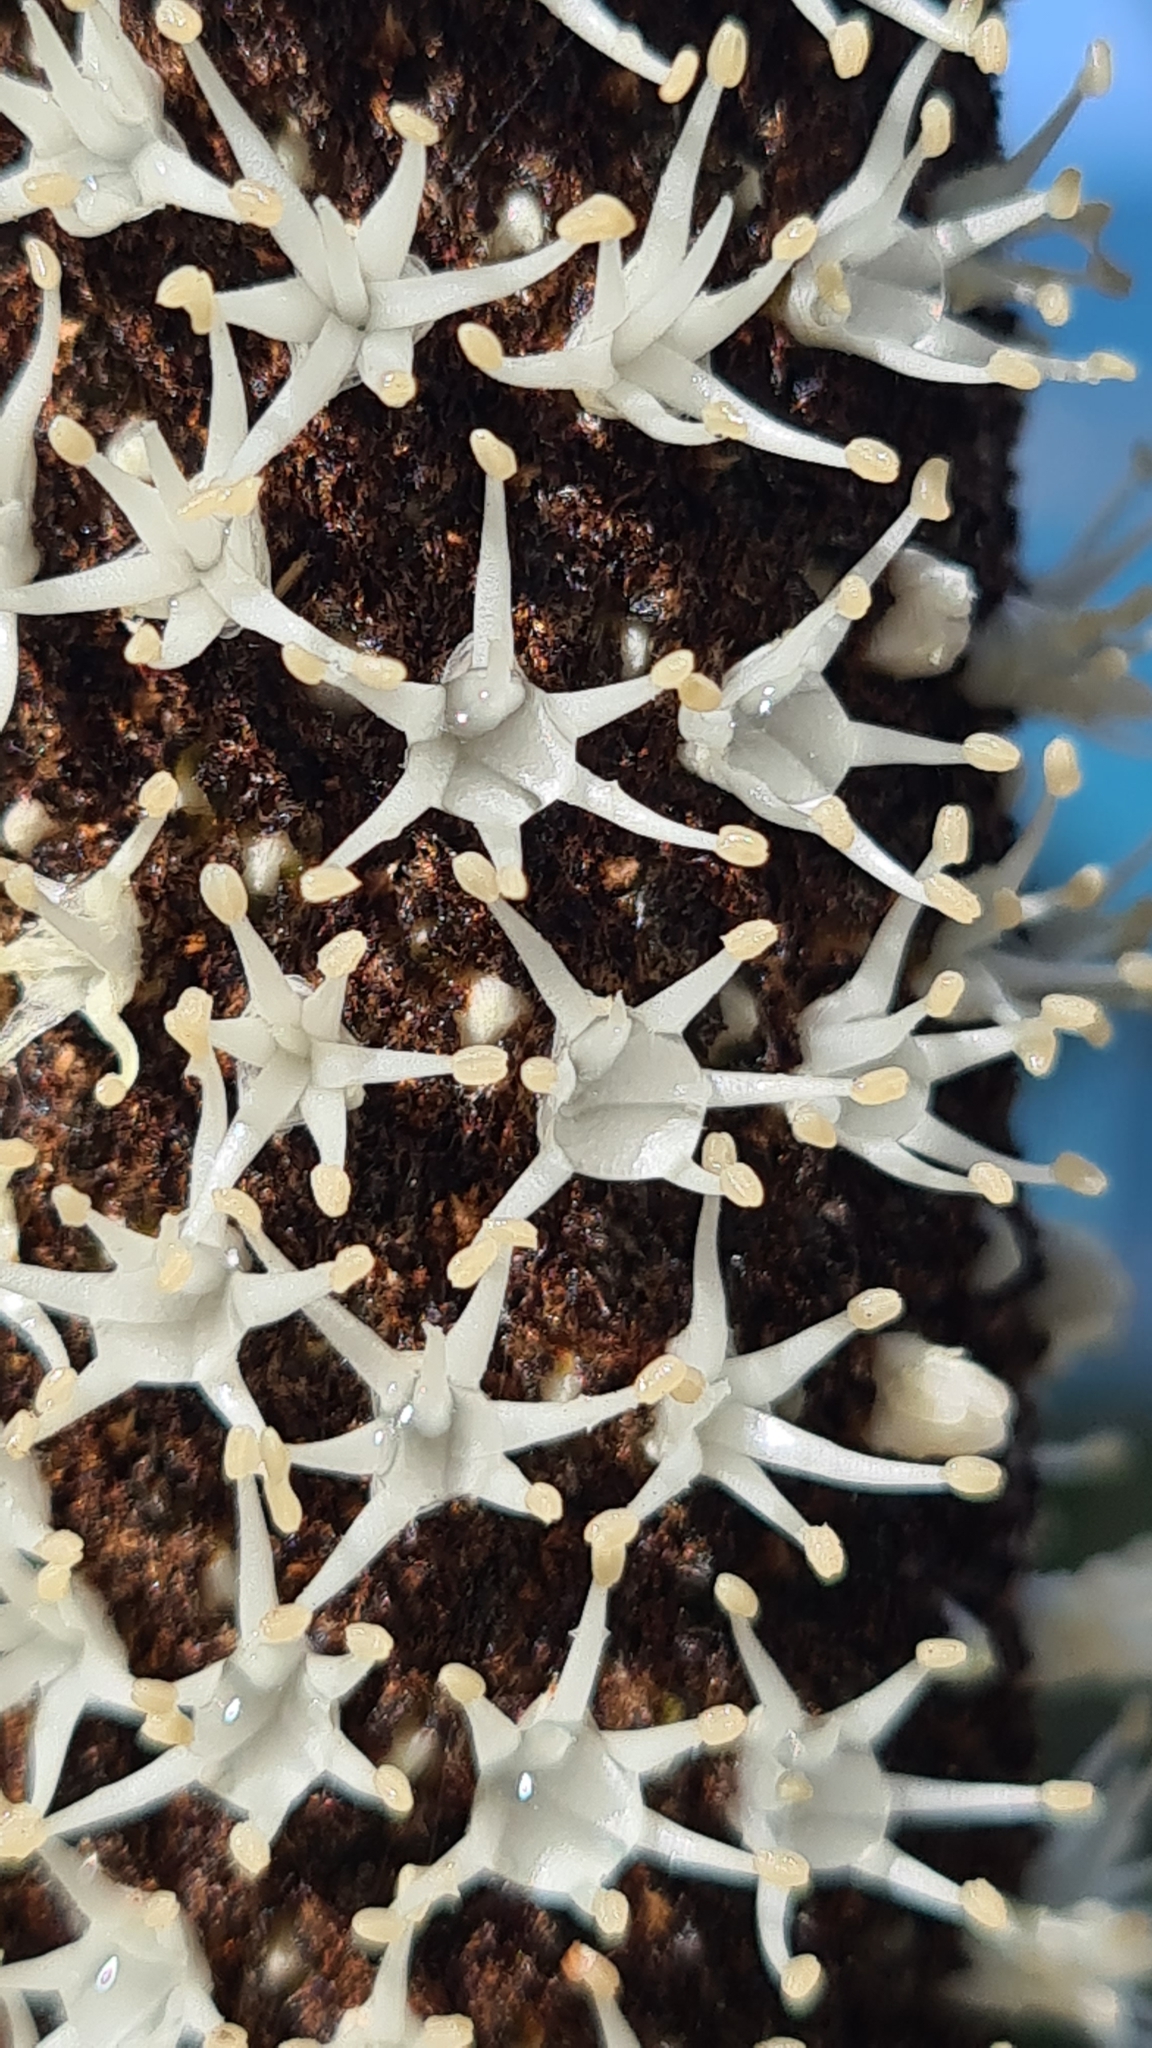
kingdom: Plantae
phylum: Tracheophyta
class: Liliopsida
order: Asparagales
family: Asphodelaceae
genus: Xanthorrhoea
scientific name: Xanthorrhoea concava
